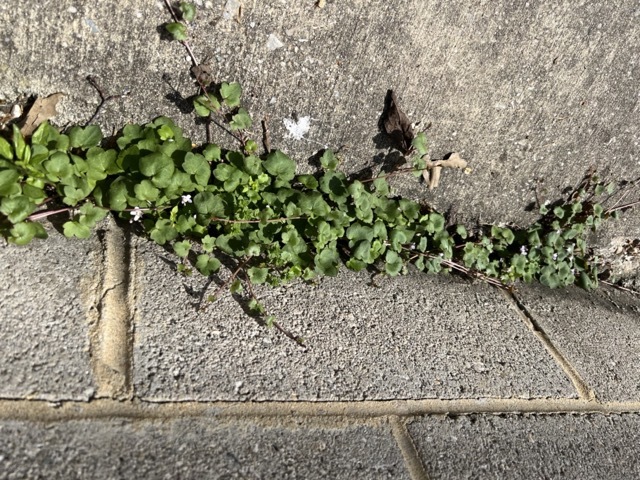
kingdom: Plantae
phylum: Tracheophyta
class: Magnoliopsida
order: Lamiales
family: Plantaginaceae
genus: Cymbalaria
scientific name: Cymbalaria muralis
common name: Ivy-leaved toadflax
